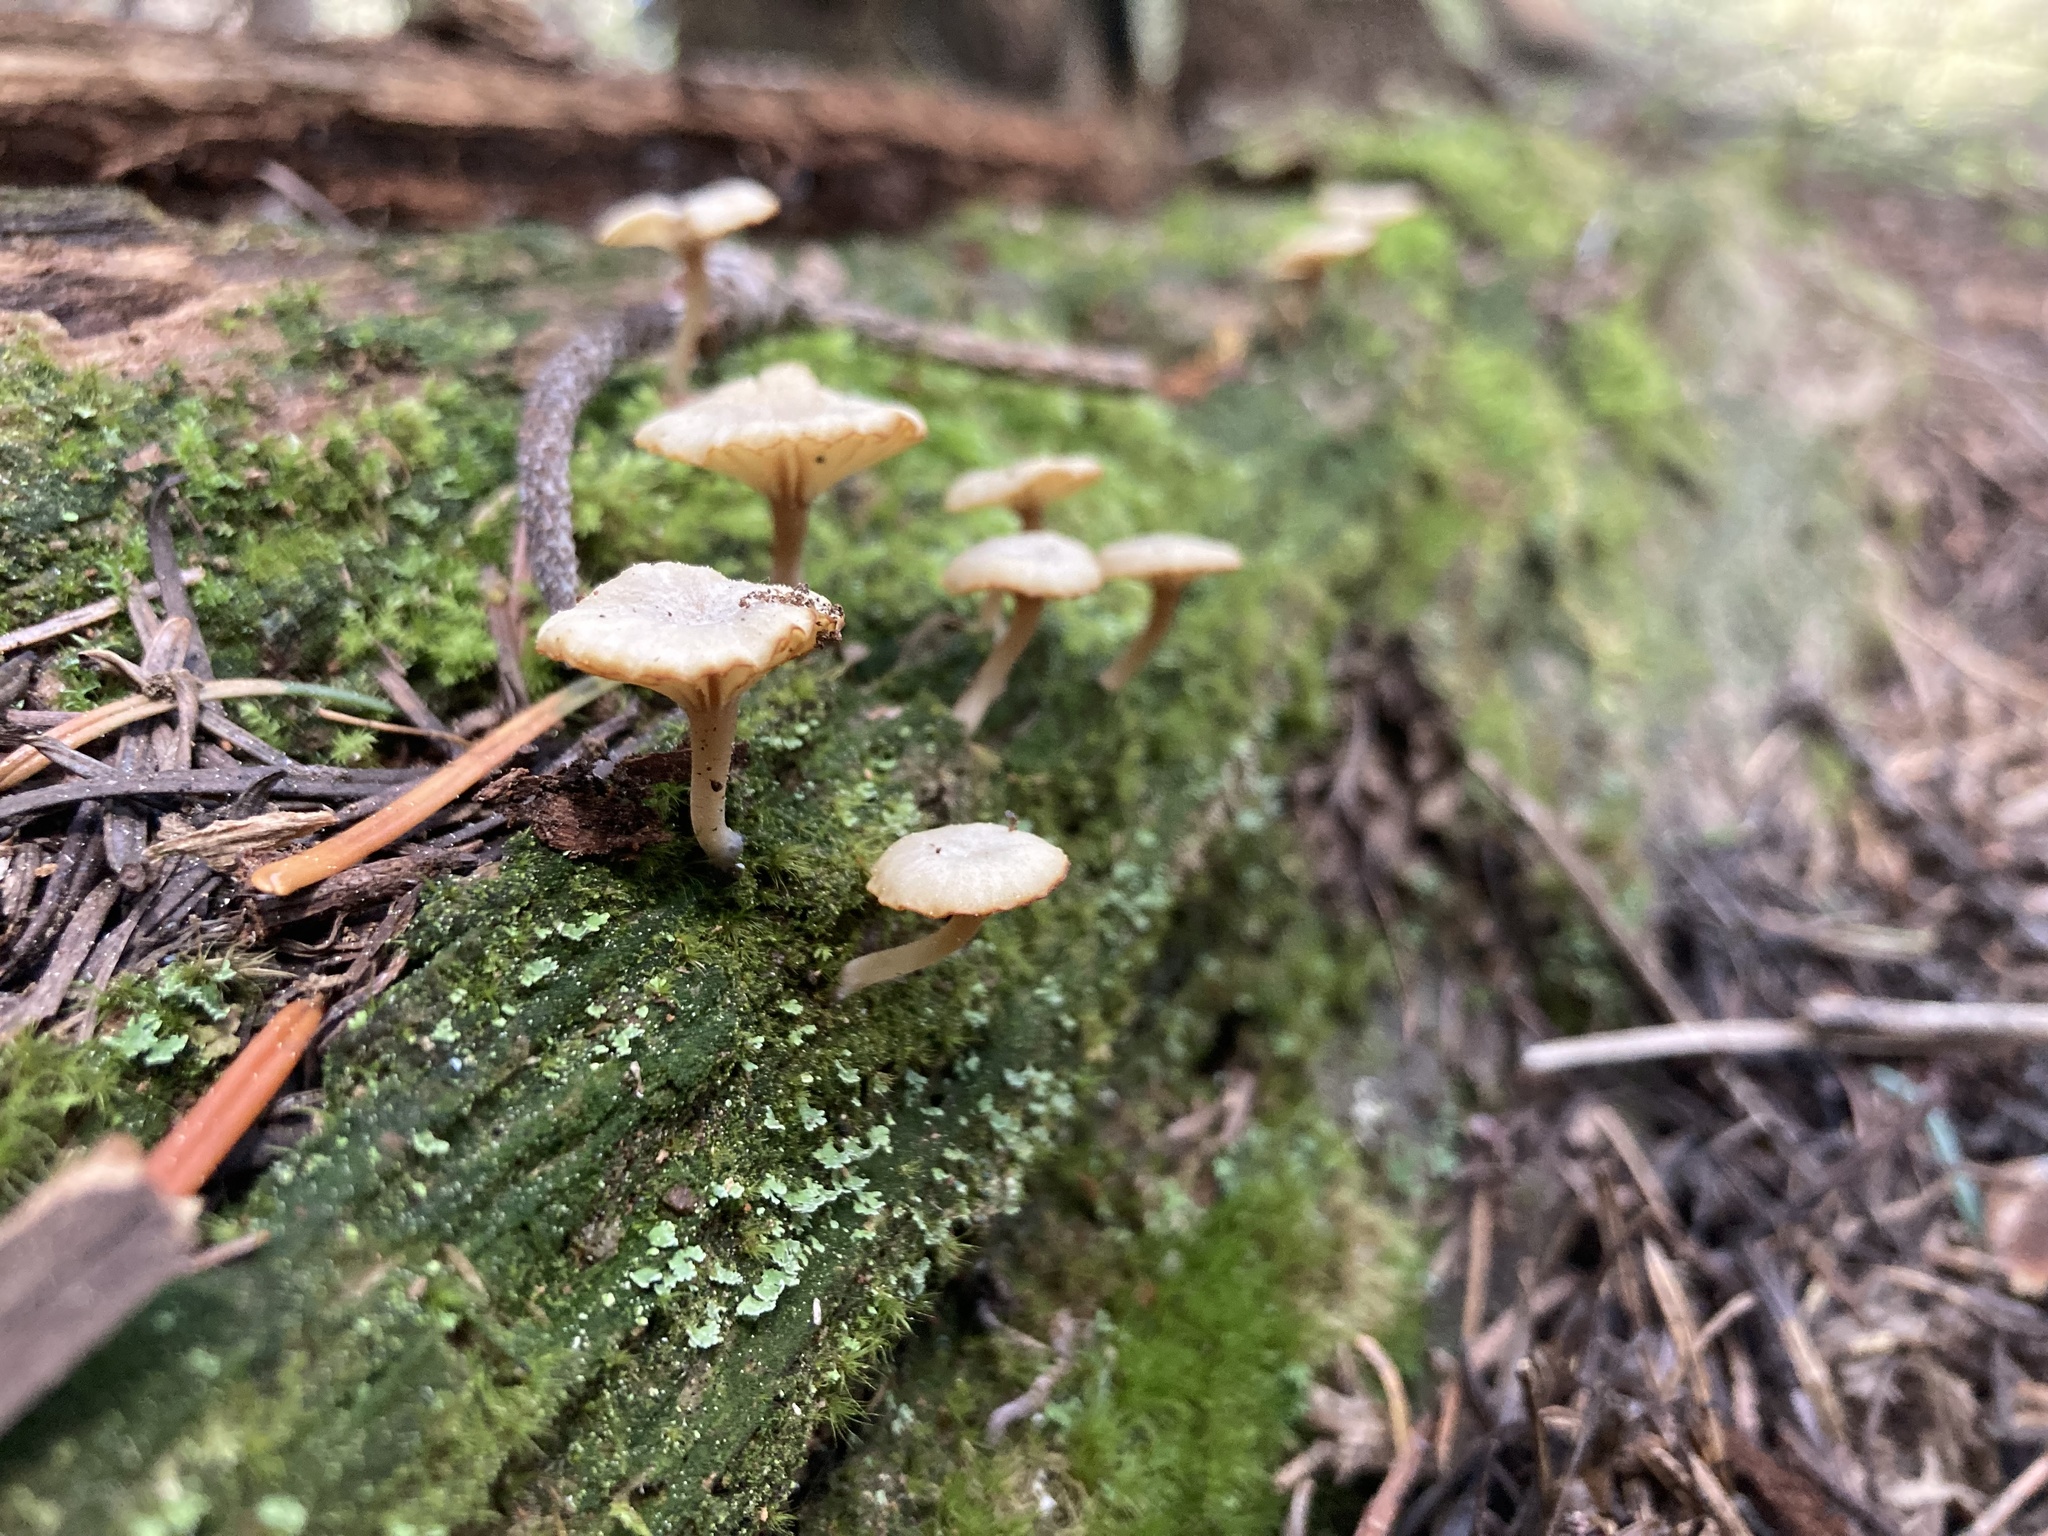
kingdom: Fungi
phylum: Basidiomycota
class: Agaricomycetes
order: Agaricales
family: Hygrophoraceae
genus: Lichenomphalia
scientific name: Lichenomphalia
